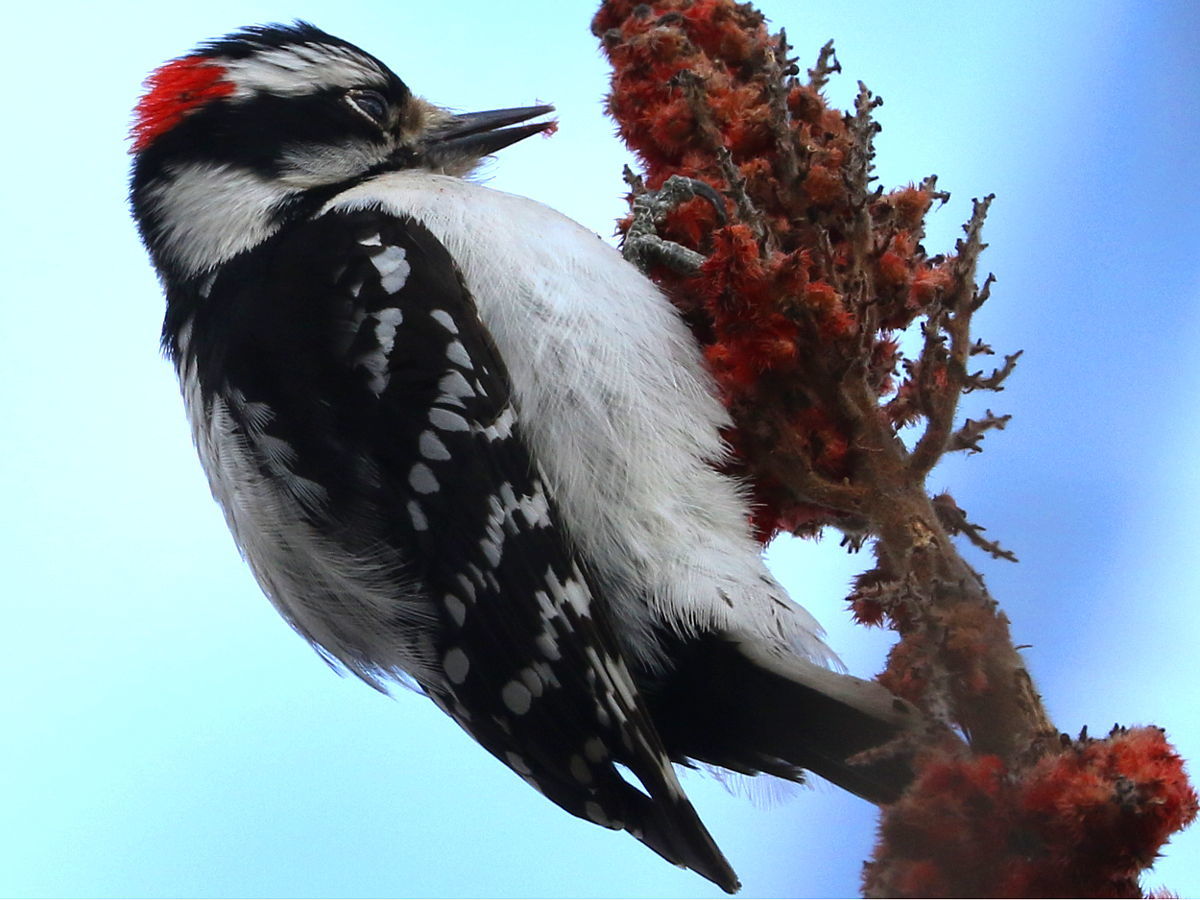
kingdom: Animalia
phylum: Chordata
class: Aves
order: Piciformes
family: Picidae
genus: Dryobates
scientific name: Dryobates pubescens
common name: Downy woodpecker
